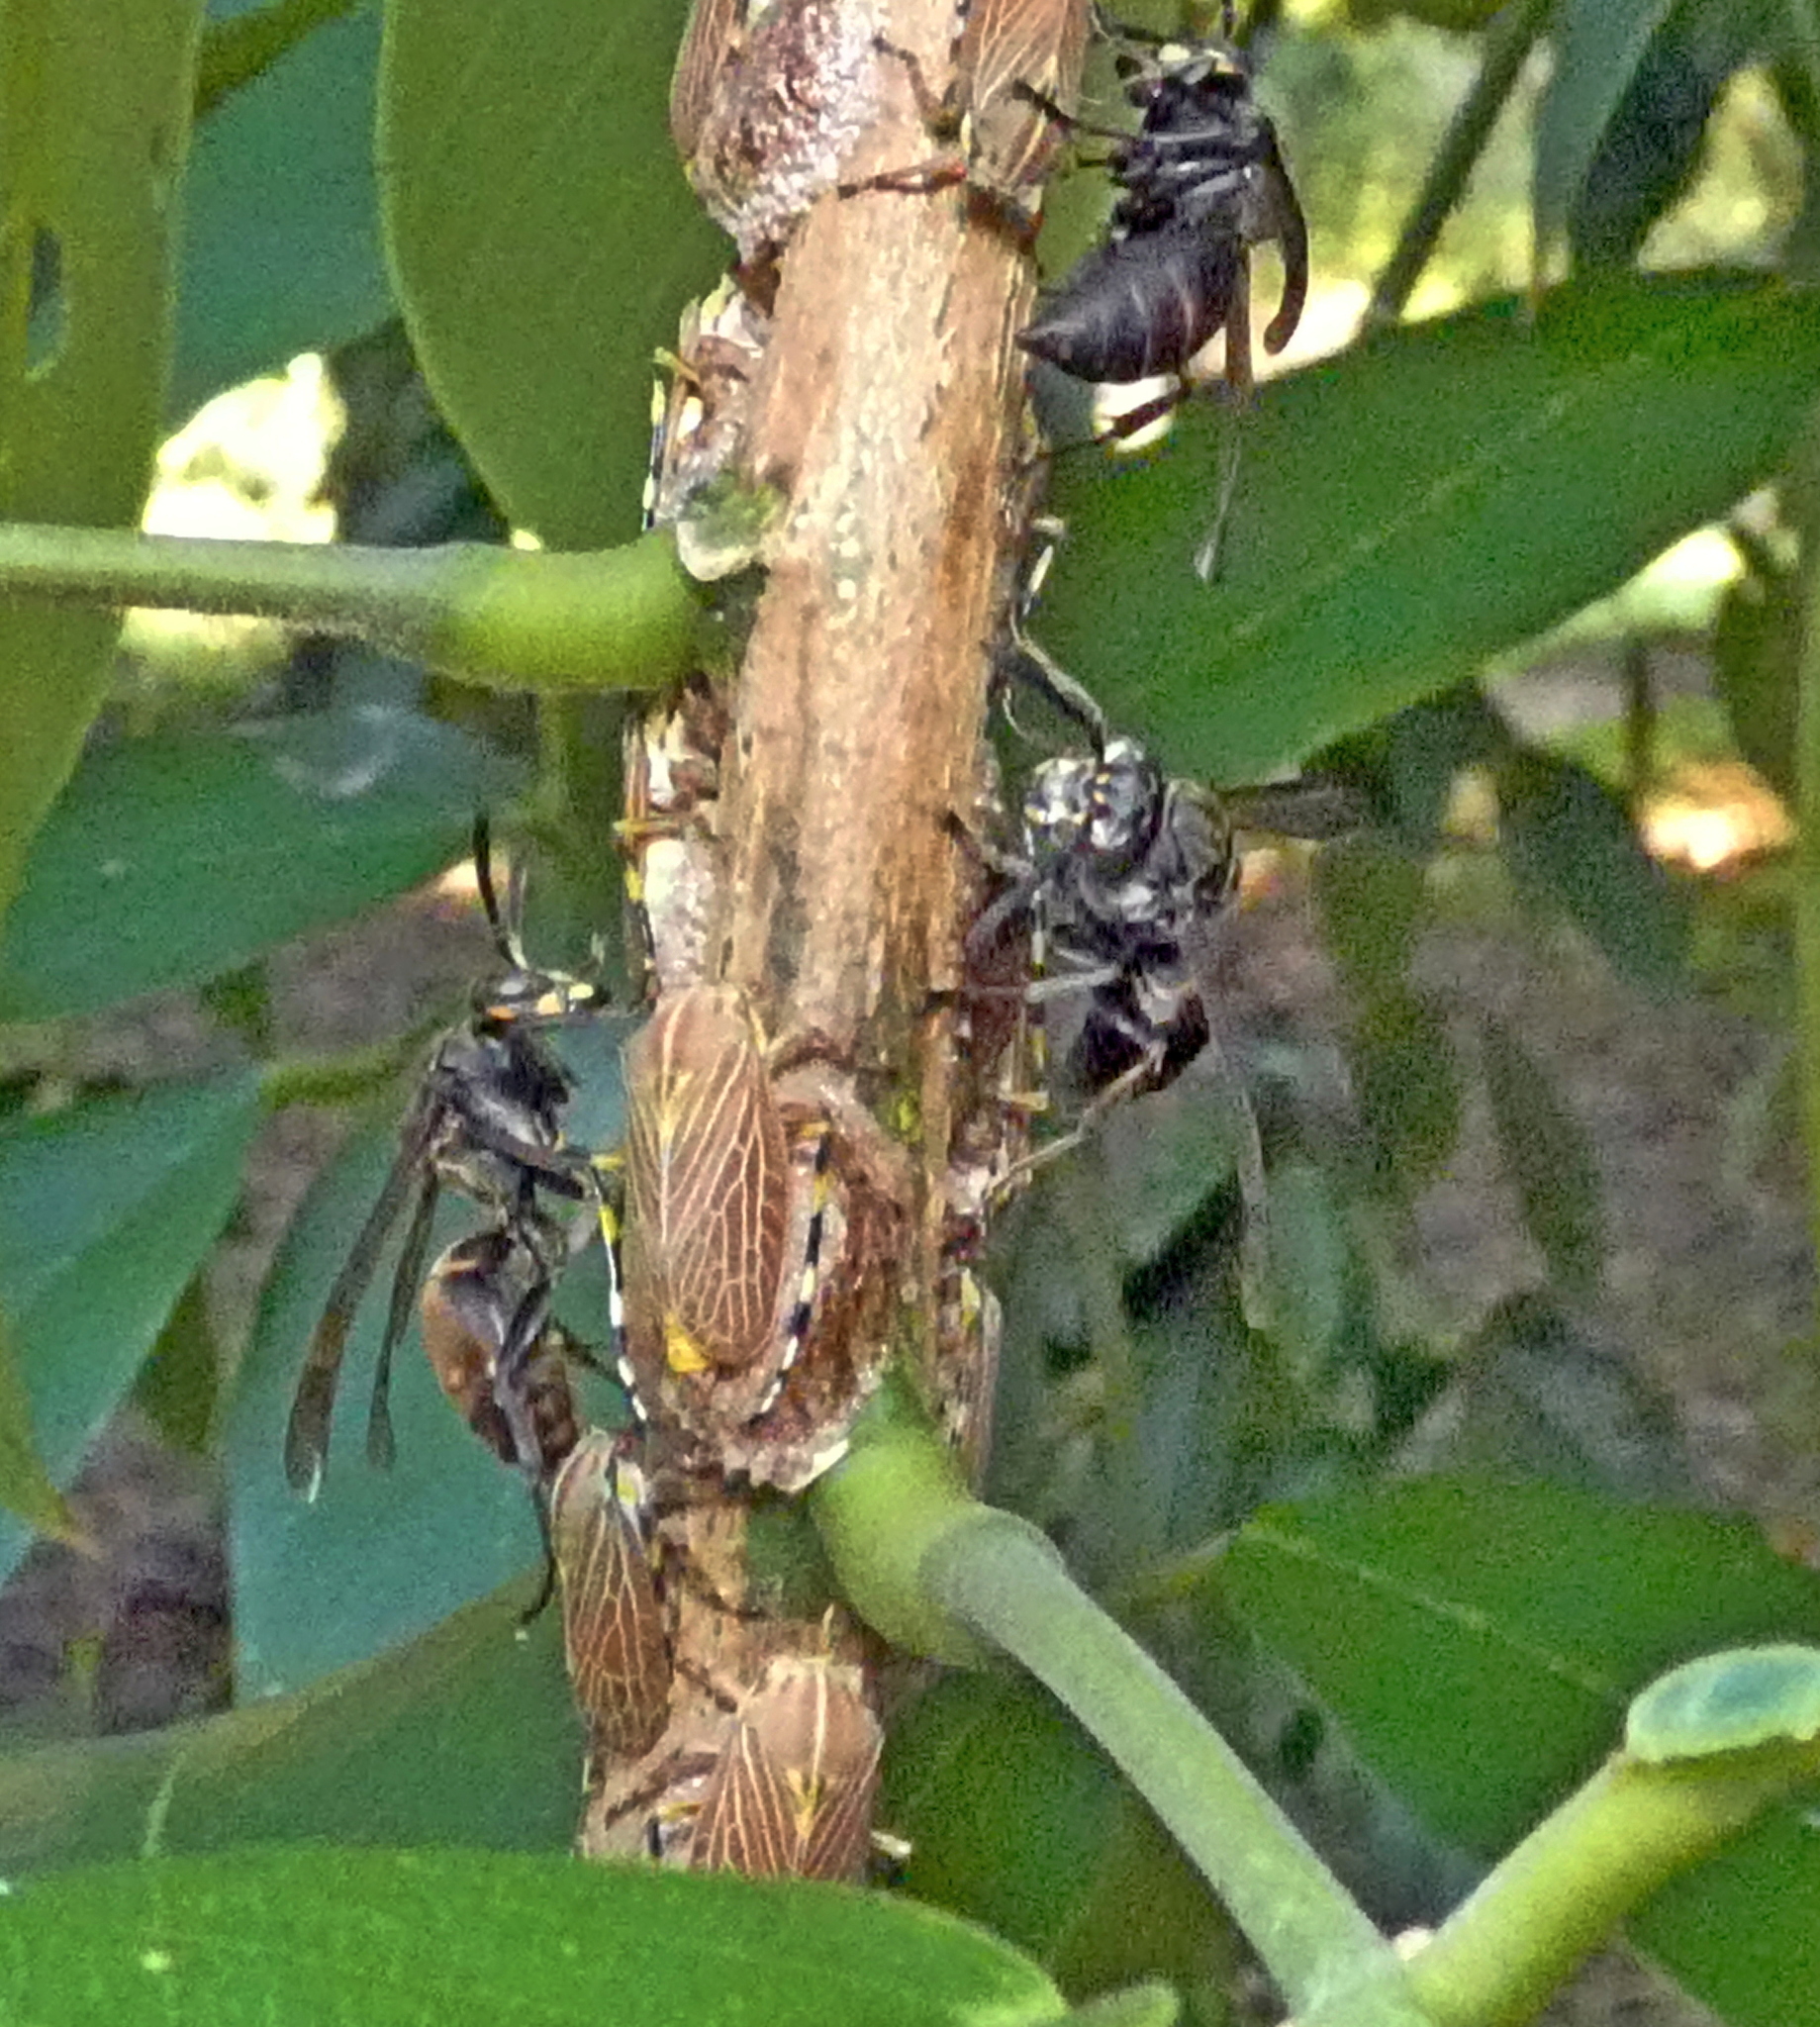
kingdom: Animalia
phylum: Arthropoda
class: Insecta
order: Hemiptera
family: Aetalionidae
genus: Aetalion
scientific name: Aetalion reticulatum
